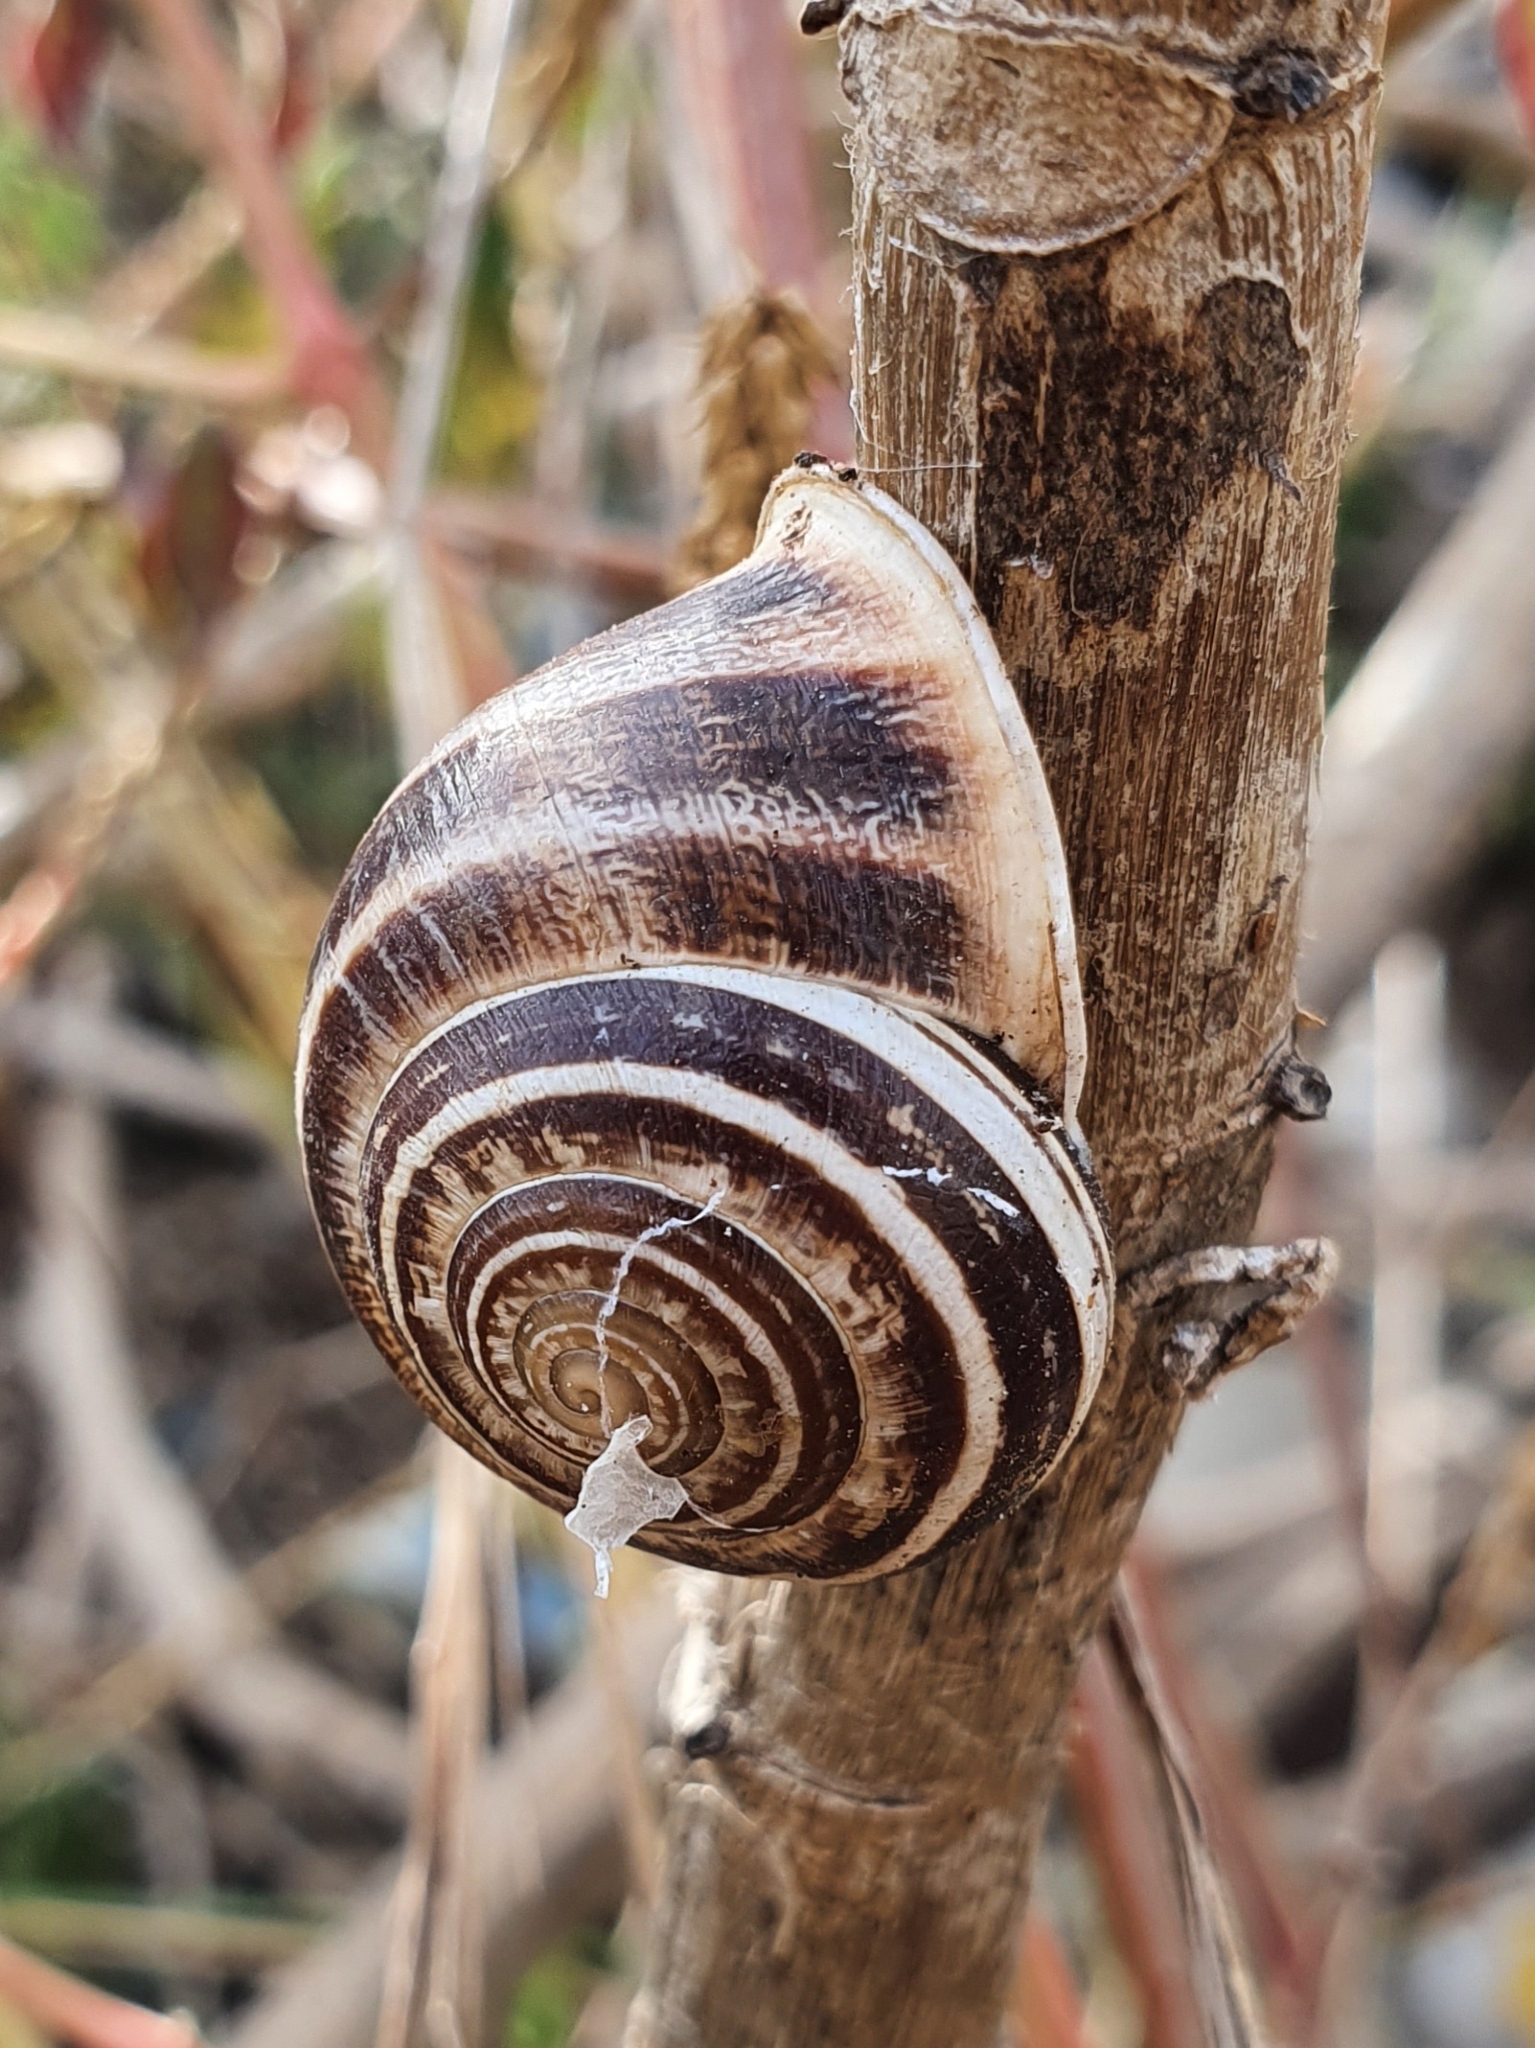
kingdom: Animalia
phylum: Mollusca
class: Gastropoda
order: Stylommatophora
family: Helicidae
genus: Eobania
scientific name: Eobania vermiculata
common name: Chocolateband snail
